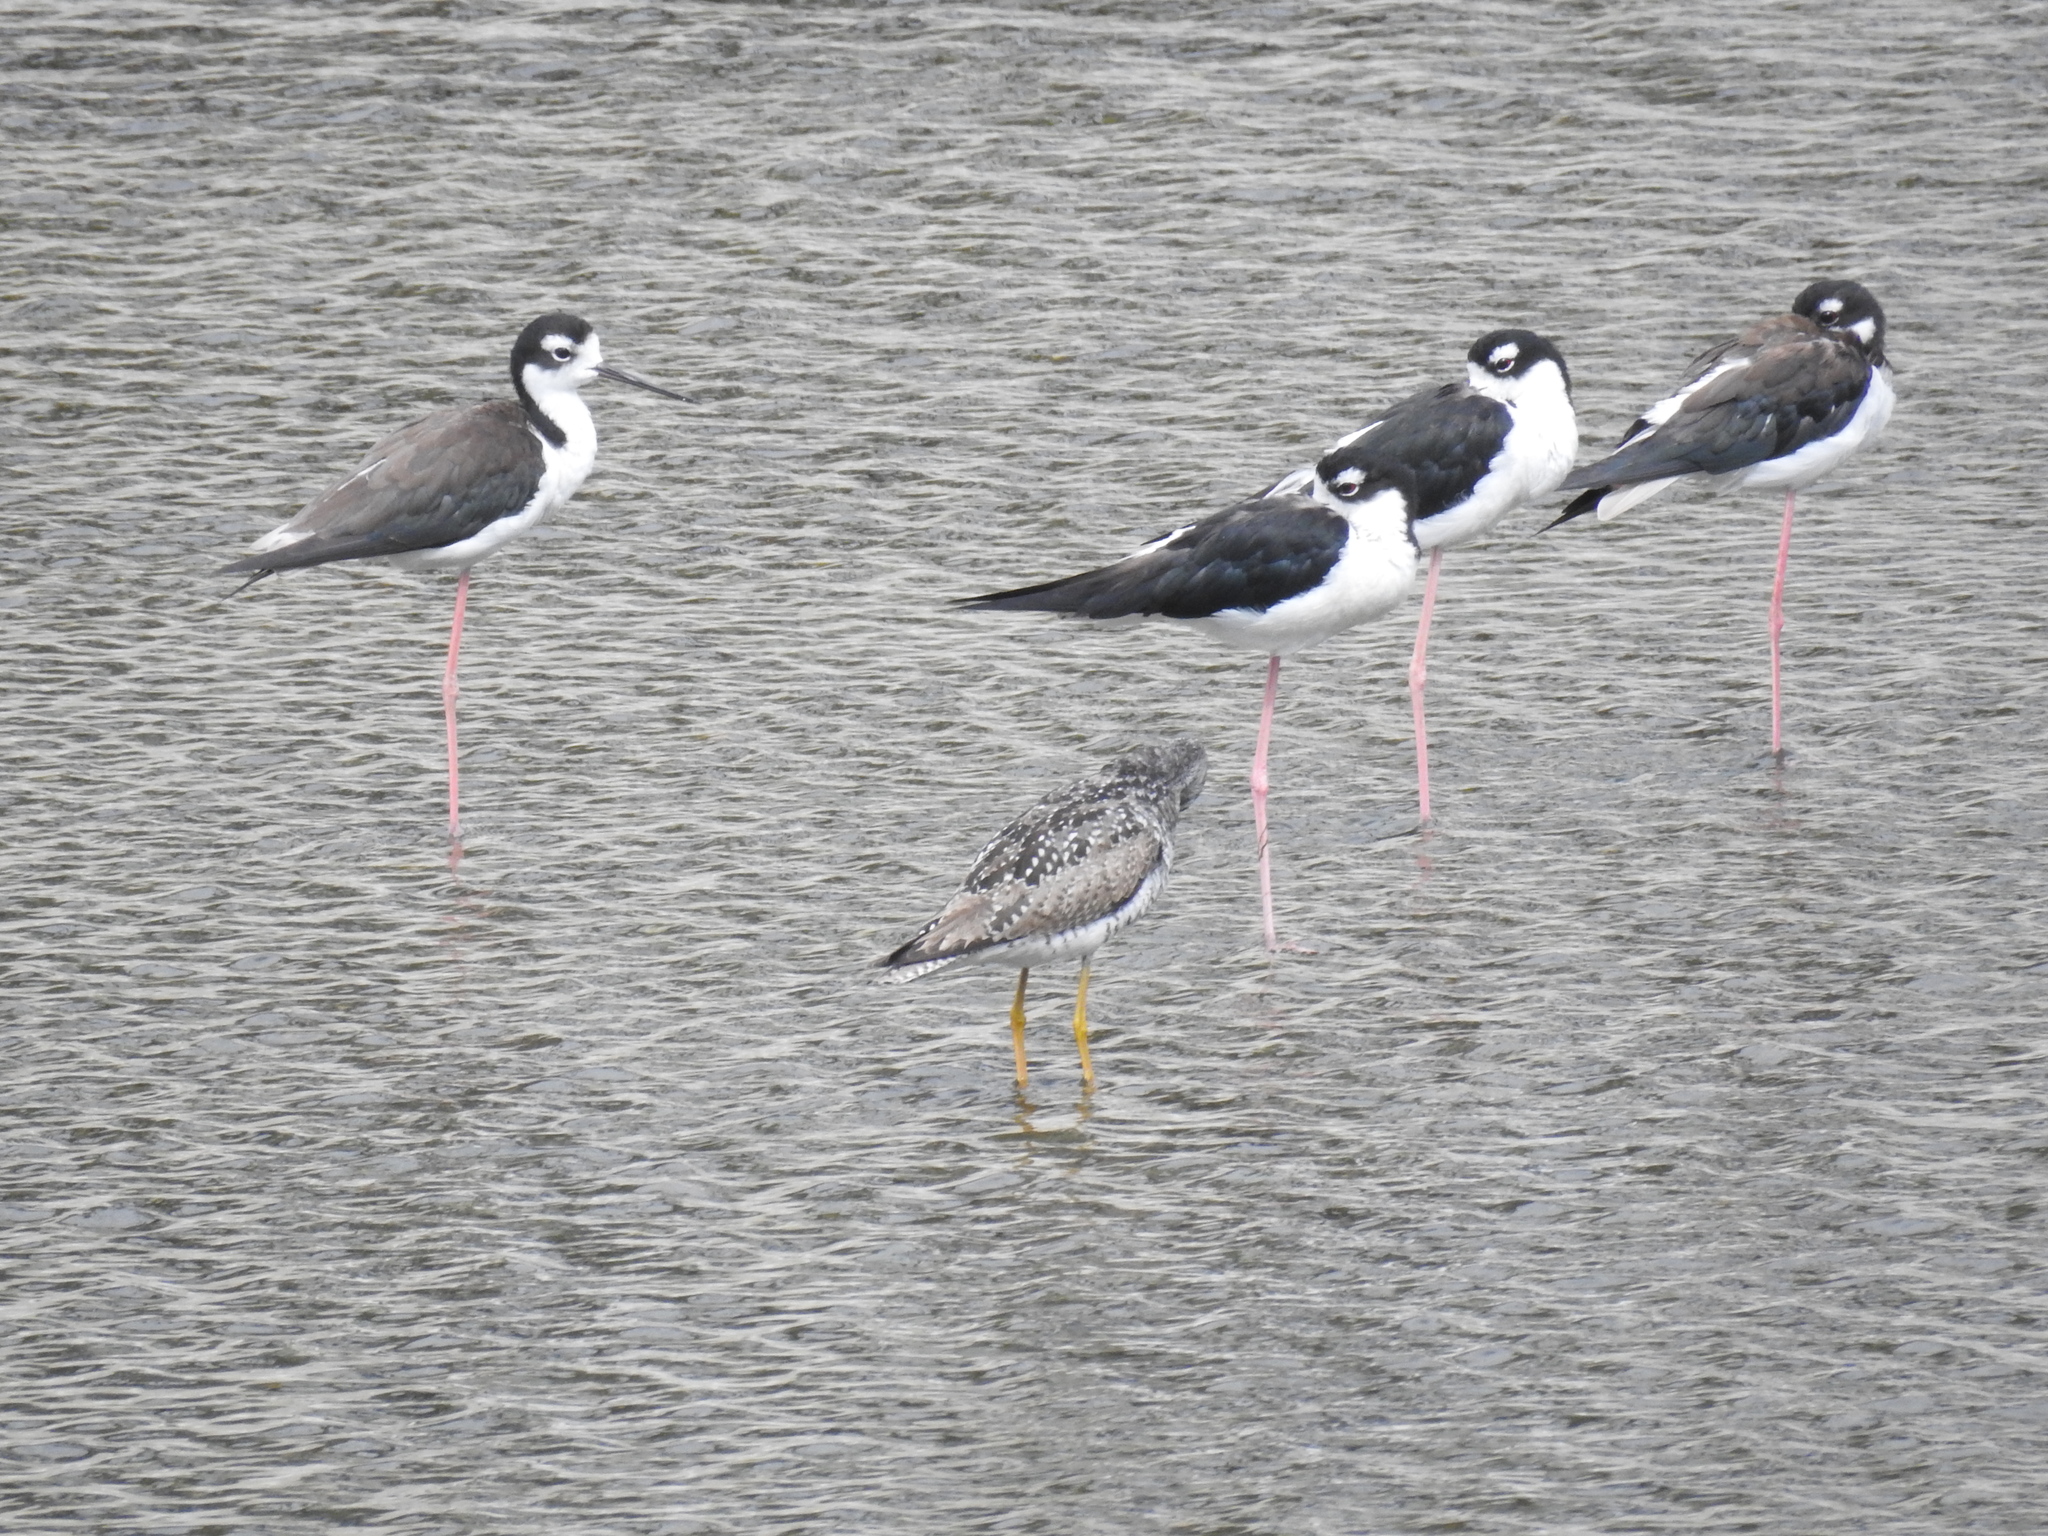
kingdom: Animalia
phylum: Chordata
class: Aves
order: Charadriiformes
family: Recurvirostridae
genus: Himantopus
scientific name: Himantopus mexicanus
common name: Black-necked stilt
